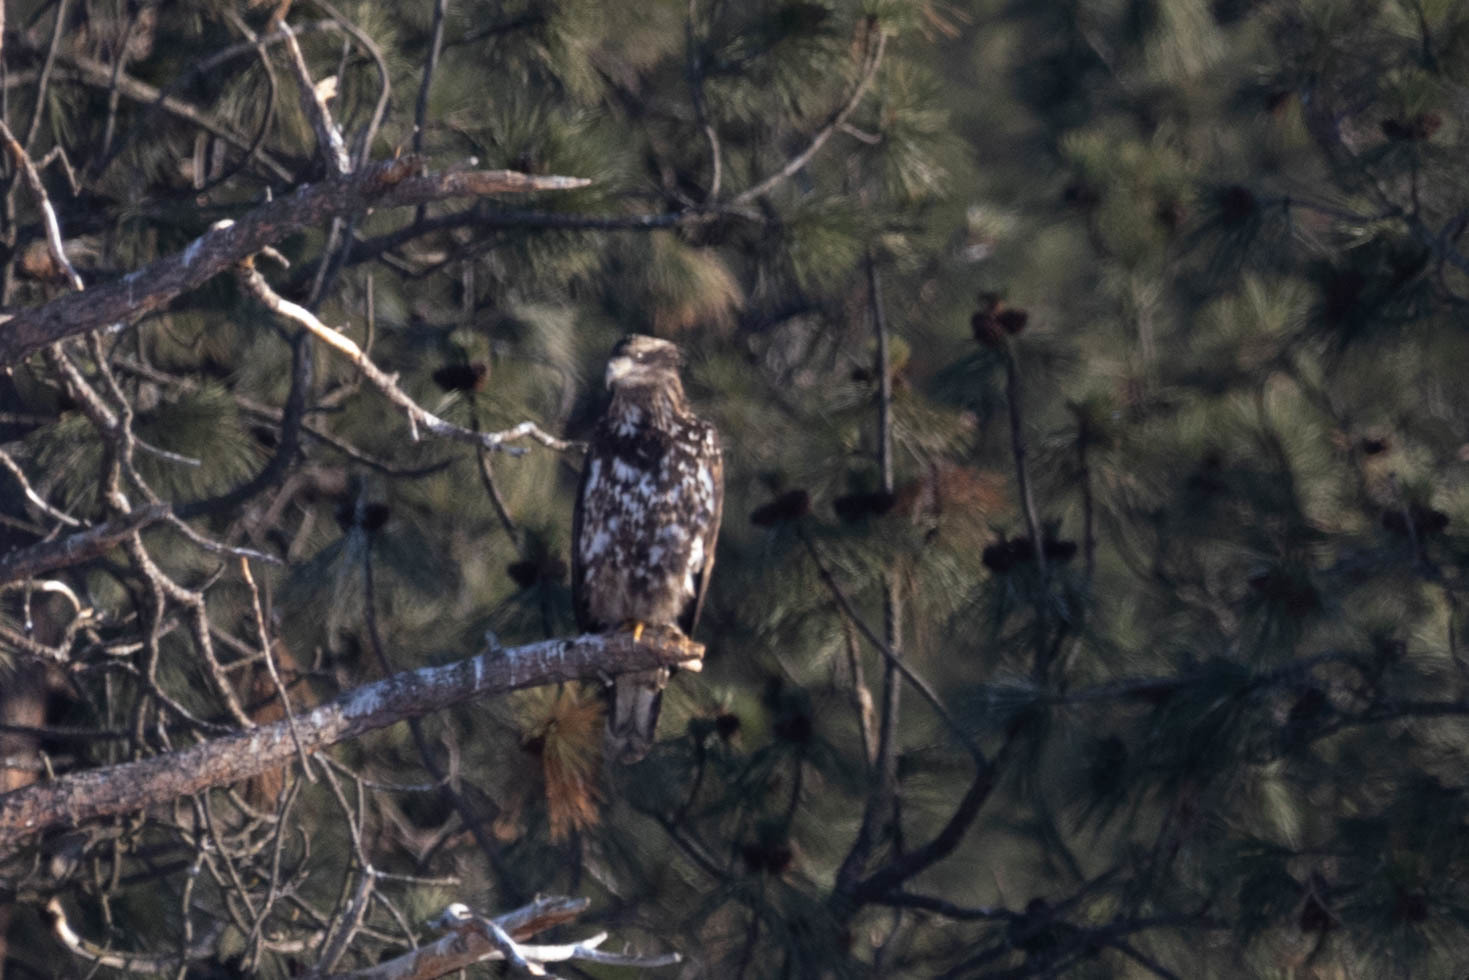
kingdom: Animalia
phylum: Chordata
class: Aves
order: Accipitriformes
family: Accipitridae
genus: Haliaeetus
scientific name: Haliaeetus leucocephalus
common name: Bald eagle
